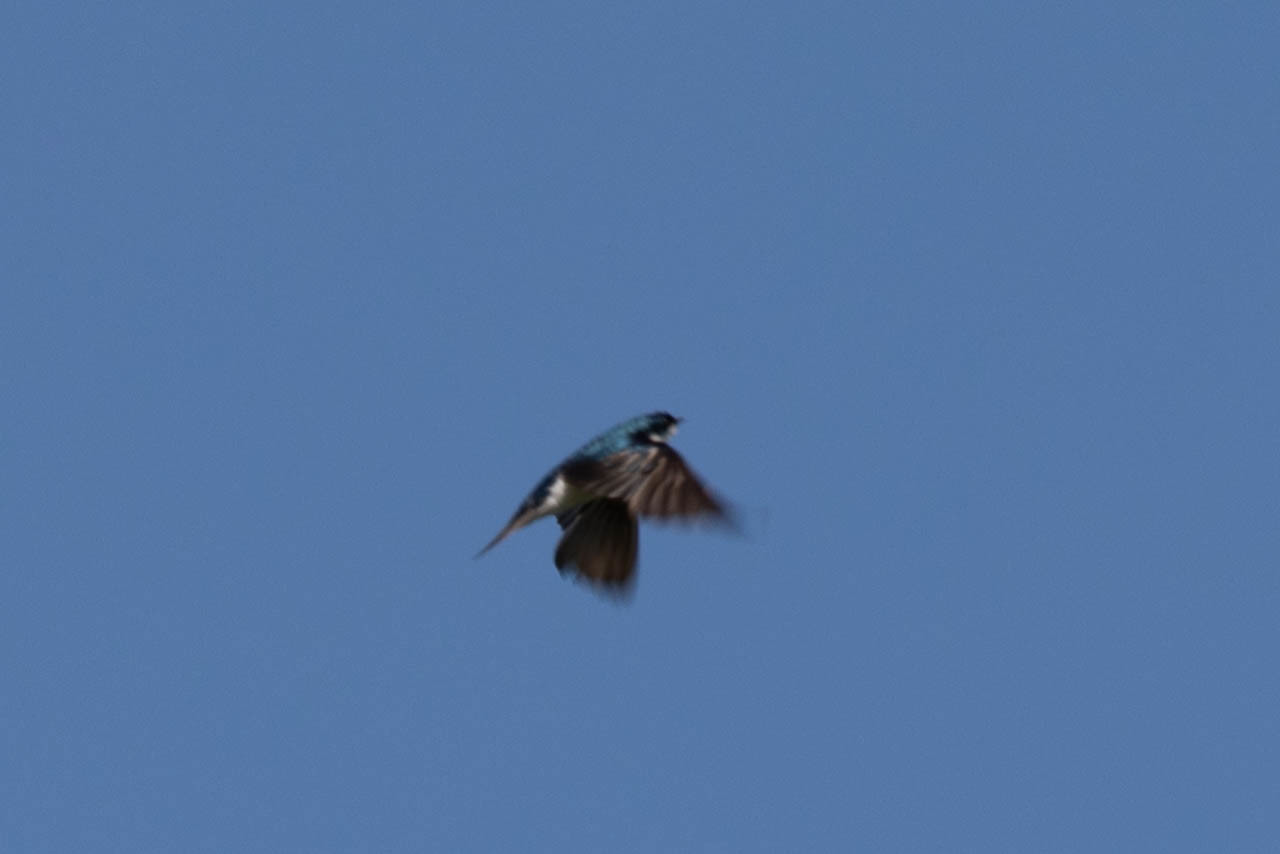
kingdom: Animalia
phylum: Chordata
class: Aves
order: Passeriformes
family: Hirundinidae
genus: Tachycineta
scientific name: Tachycineta bicolor
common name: Tree swallow
